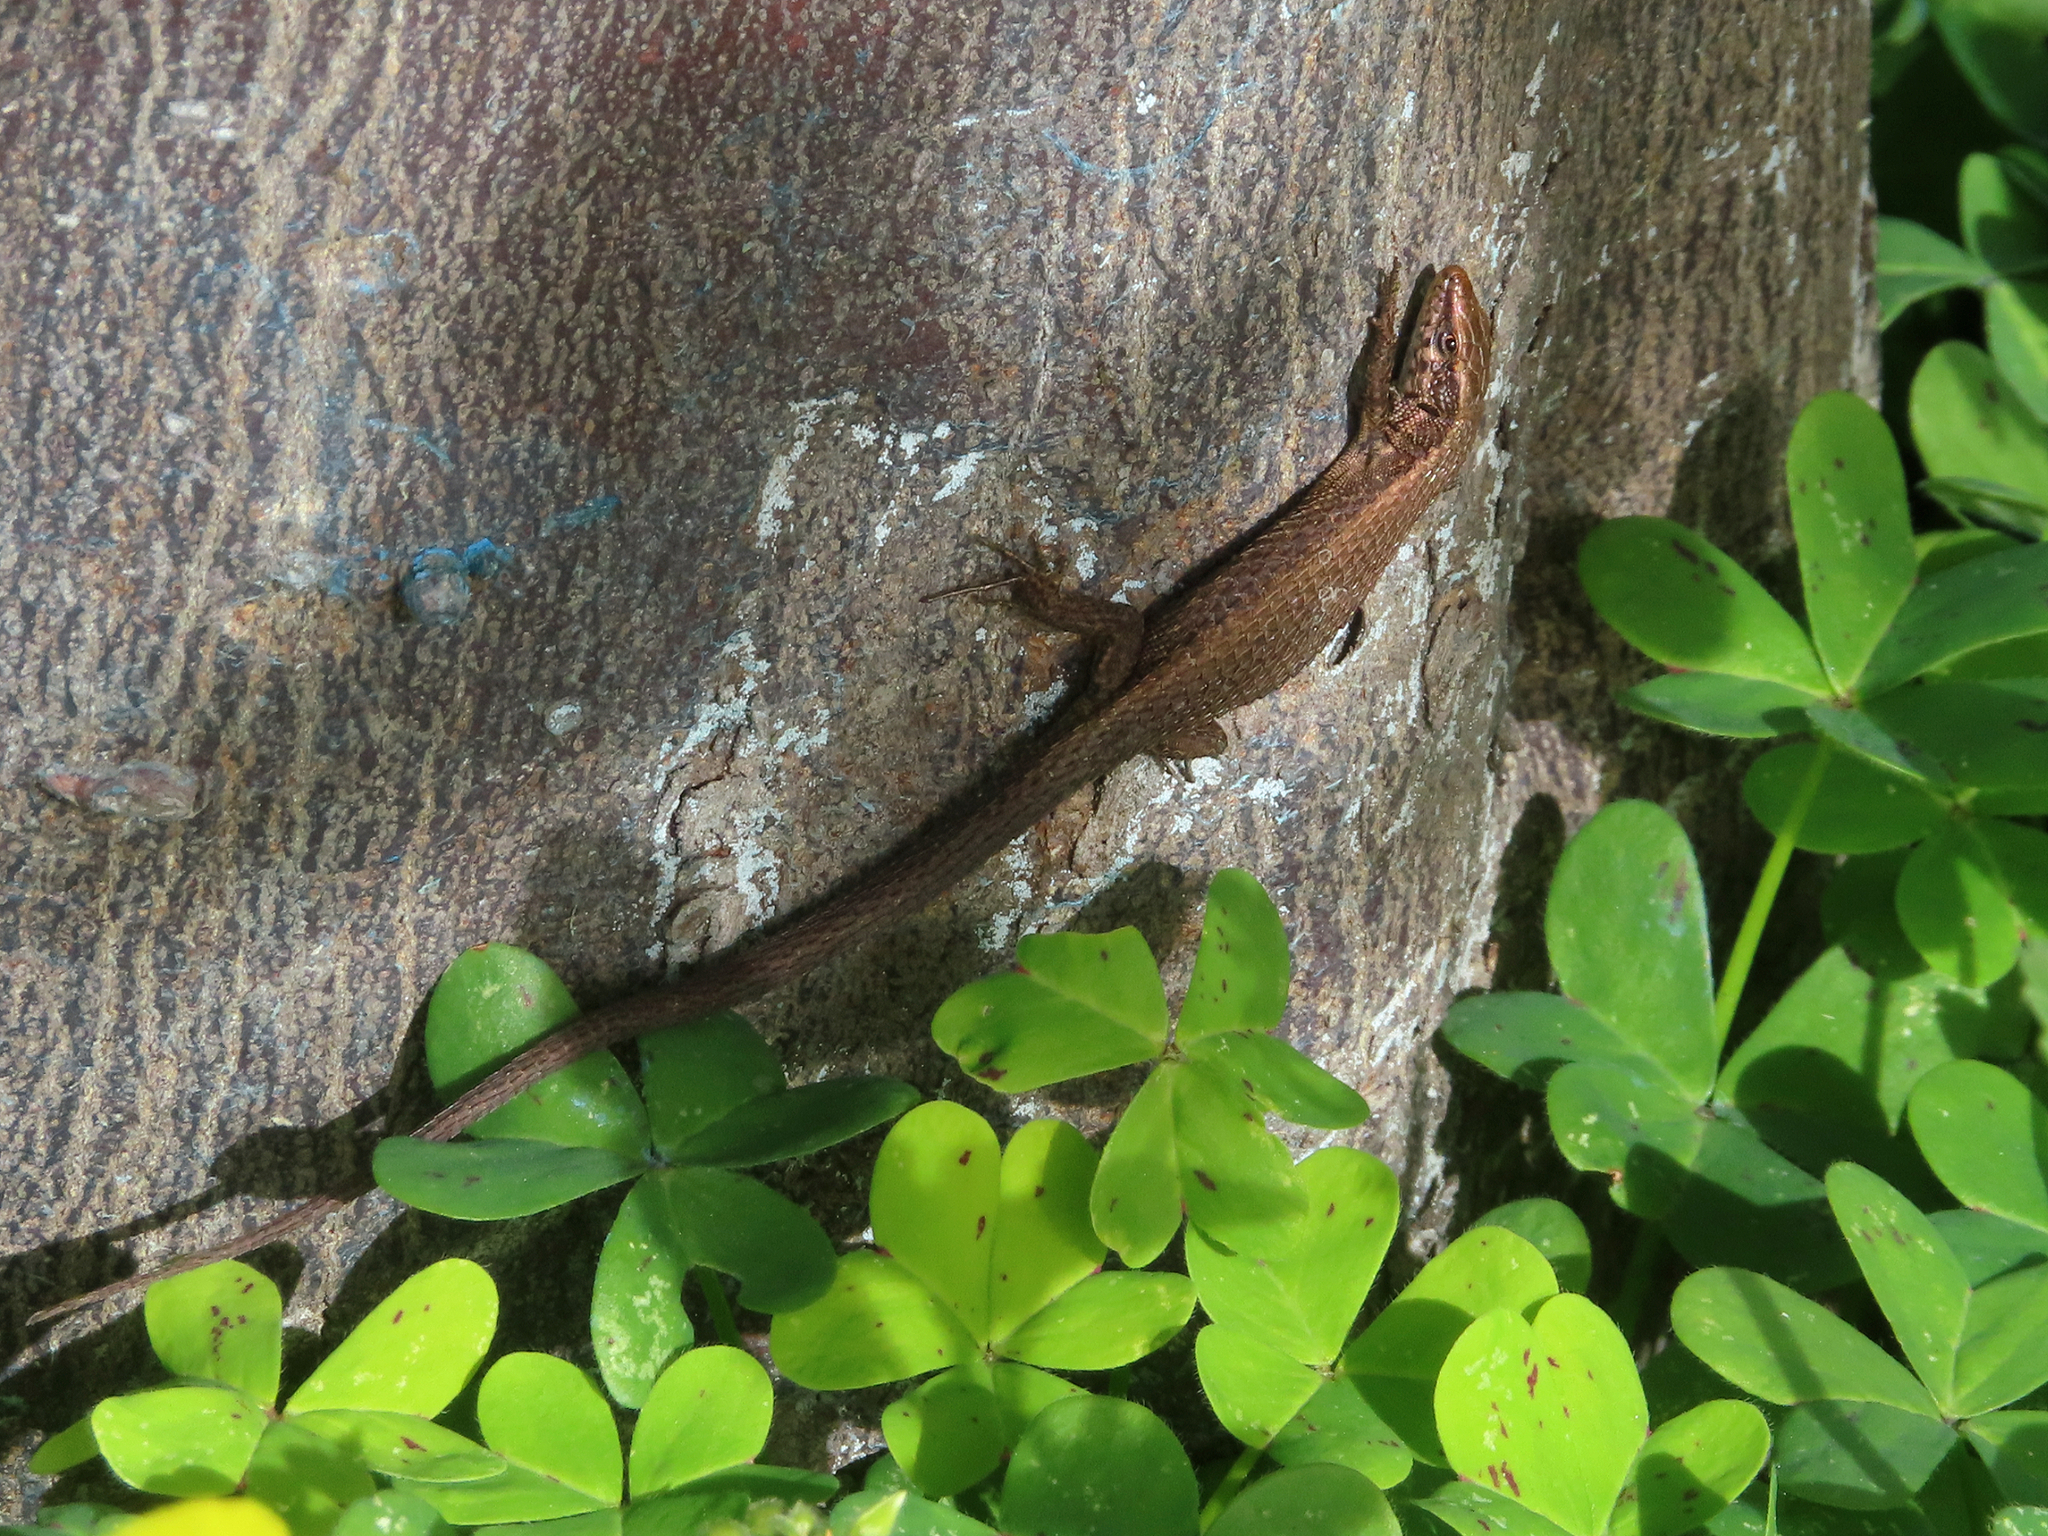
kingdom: Animalia
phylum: Chordata
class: Squamata
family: Lacertidae
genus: Algyroides
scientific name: Algyroides moreoticus
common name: Greek algyroides
